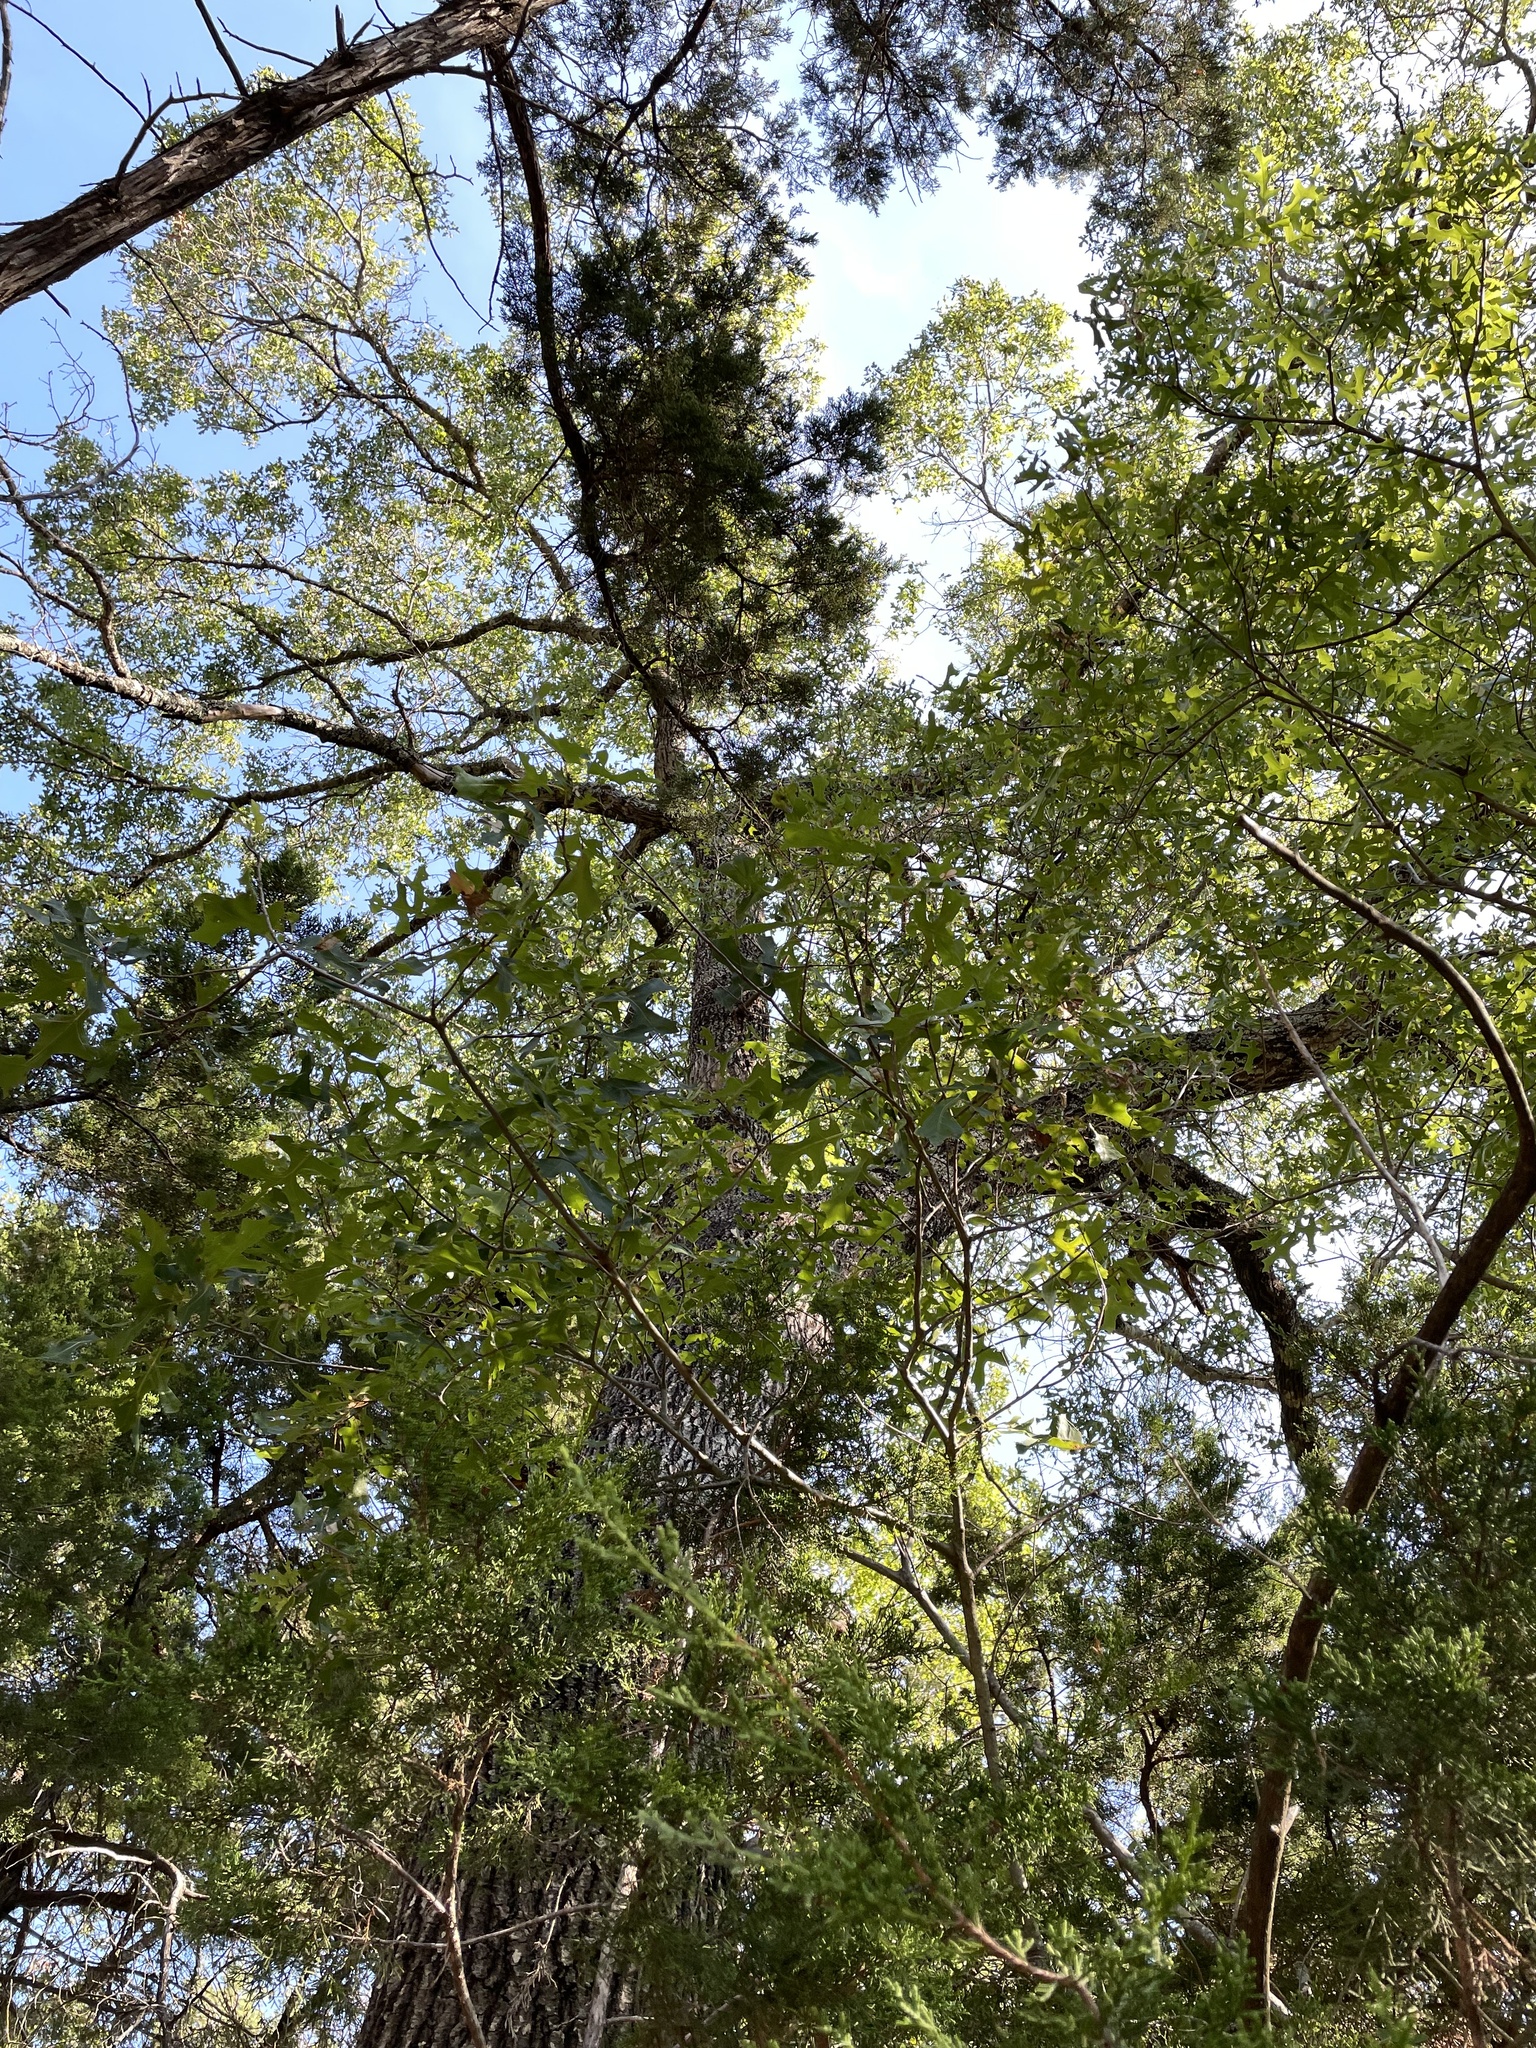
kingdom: Plantae
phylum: Tracheophyta
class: Magnoliopsida
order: Fagales
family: Fagaceae
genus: Quercus
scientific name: Quercus buckleyi
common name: Buckley oak
